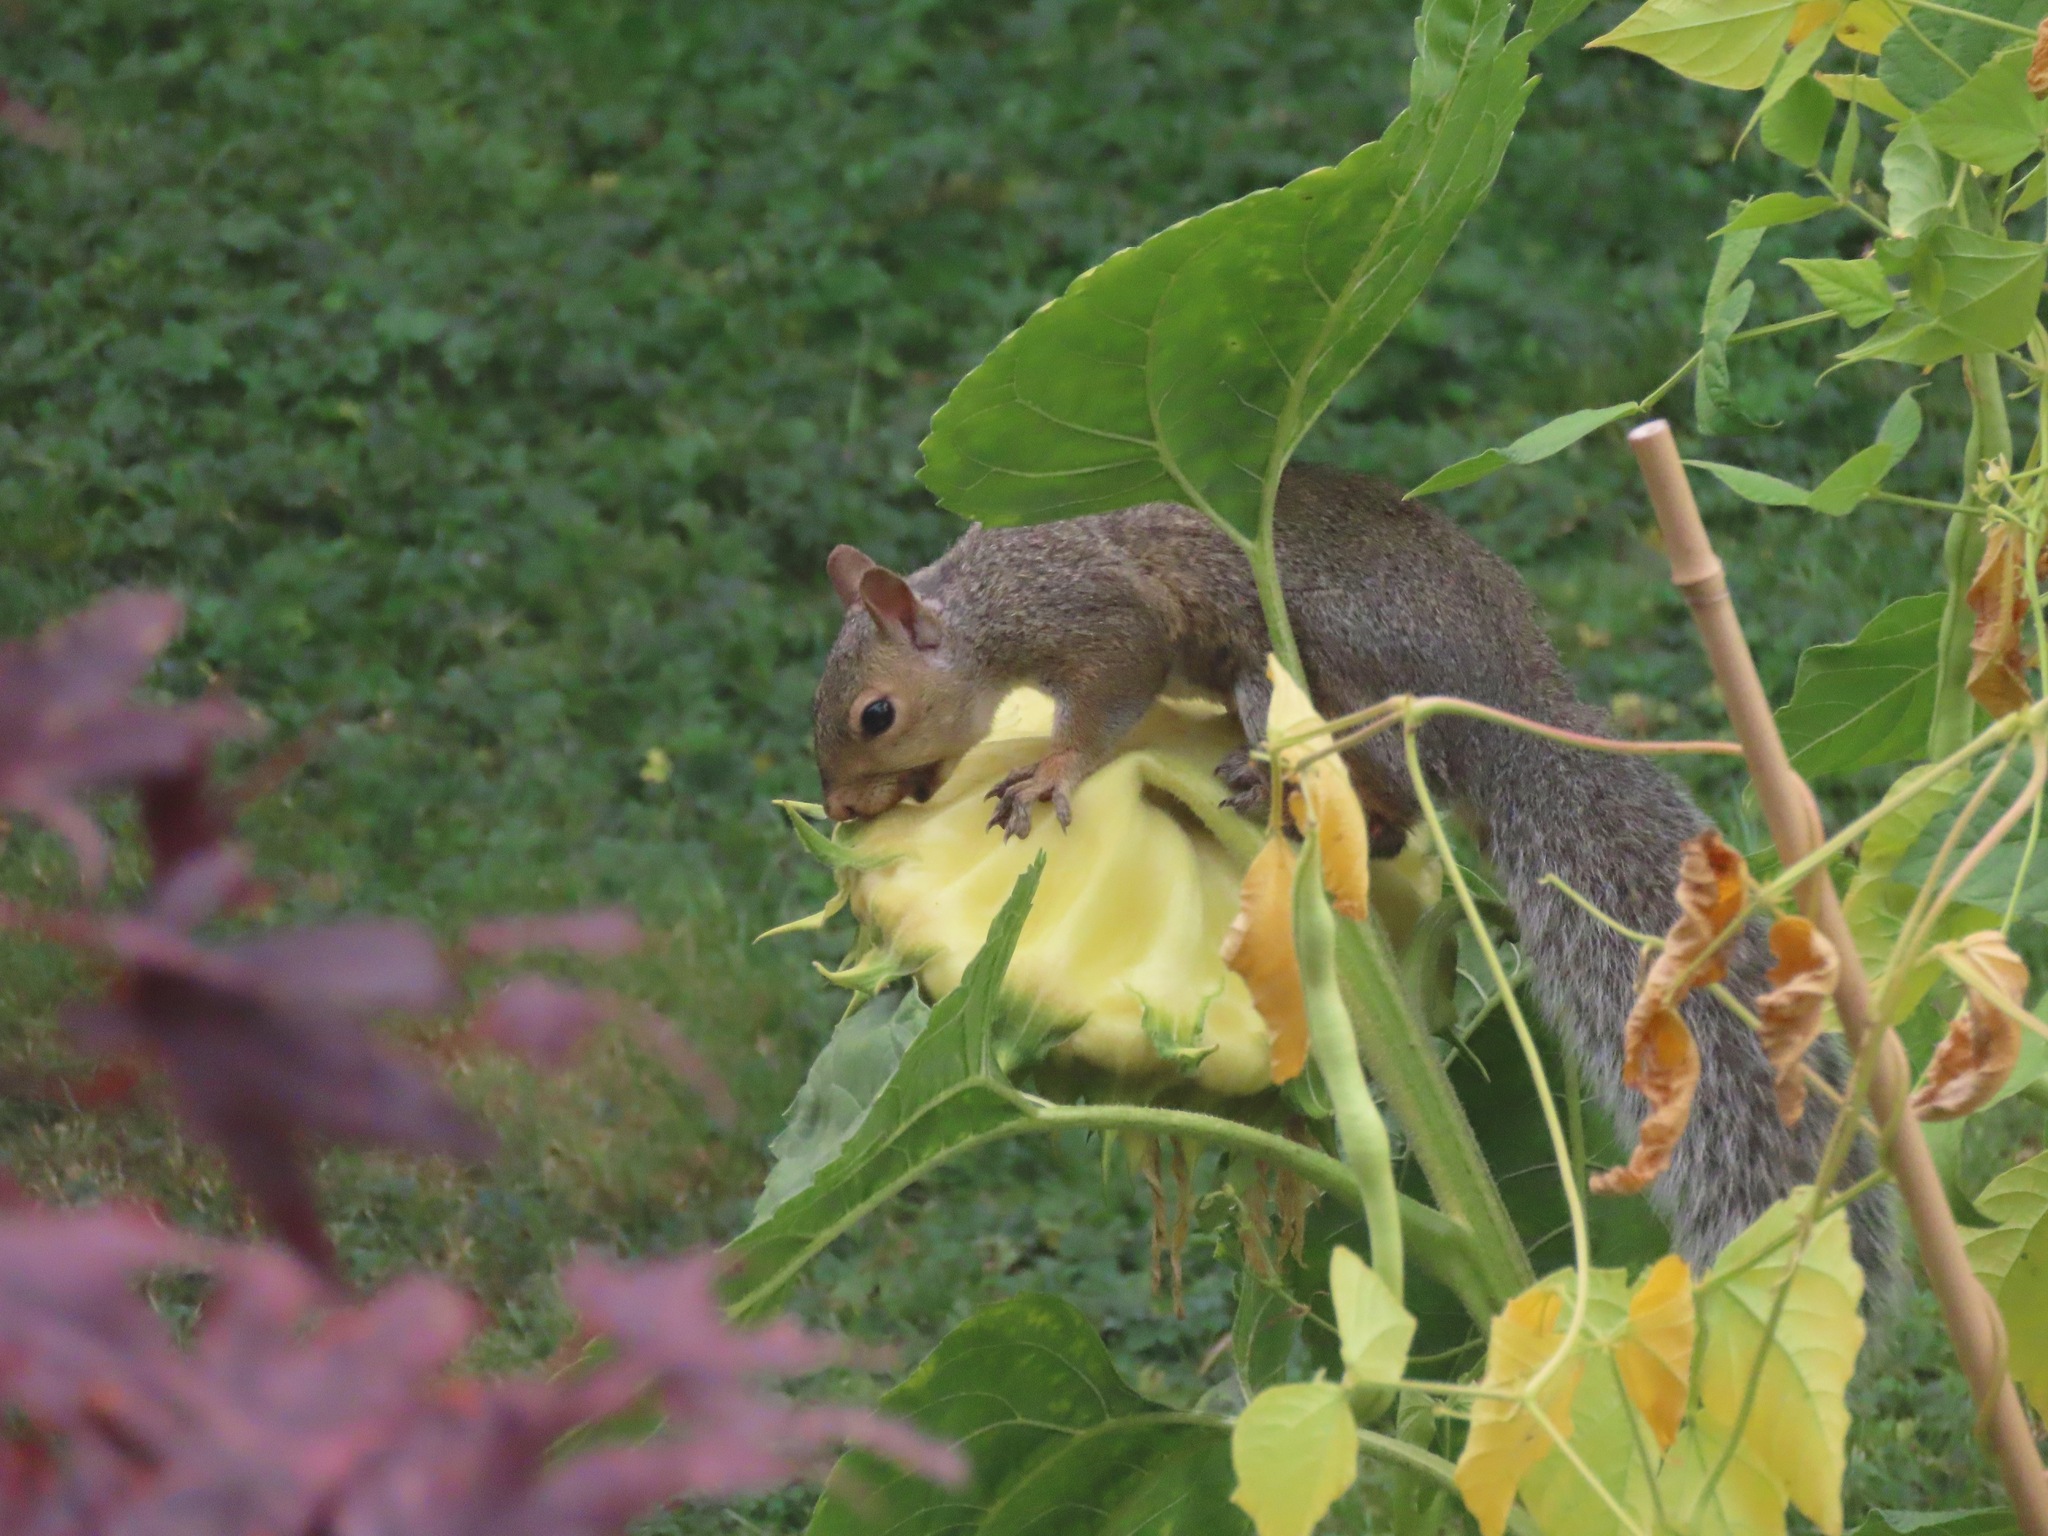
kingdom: Animalia
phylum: Chordata
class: Mammalia
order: Rodentia
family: Sciuridae
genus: Sciurus
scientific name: Sciurus carolinensis
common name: Eastern gray squirrel
